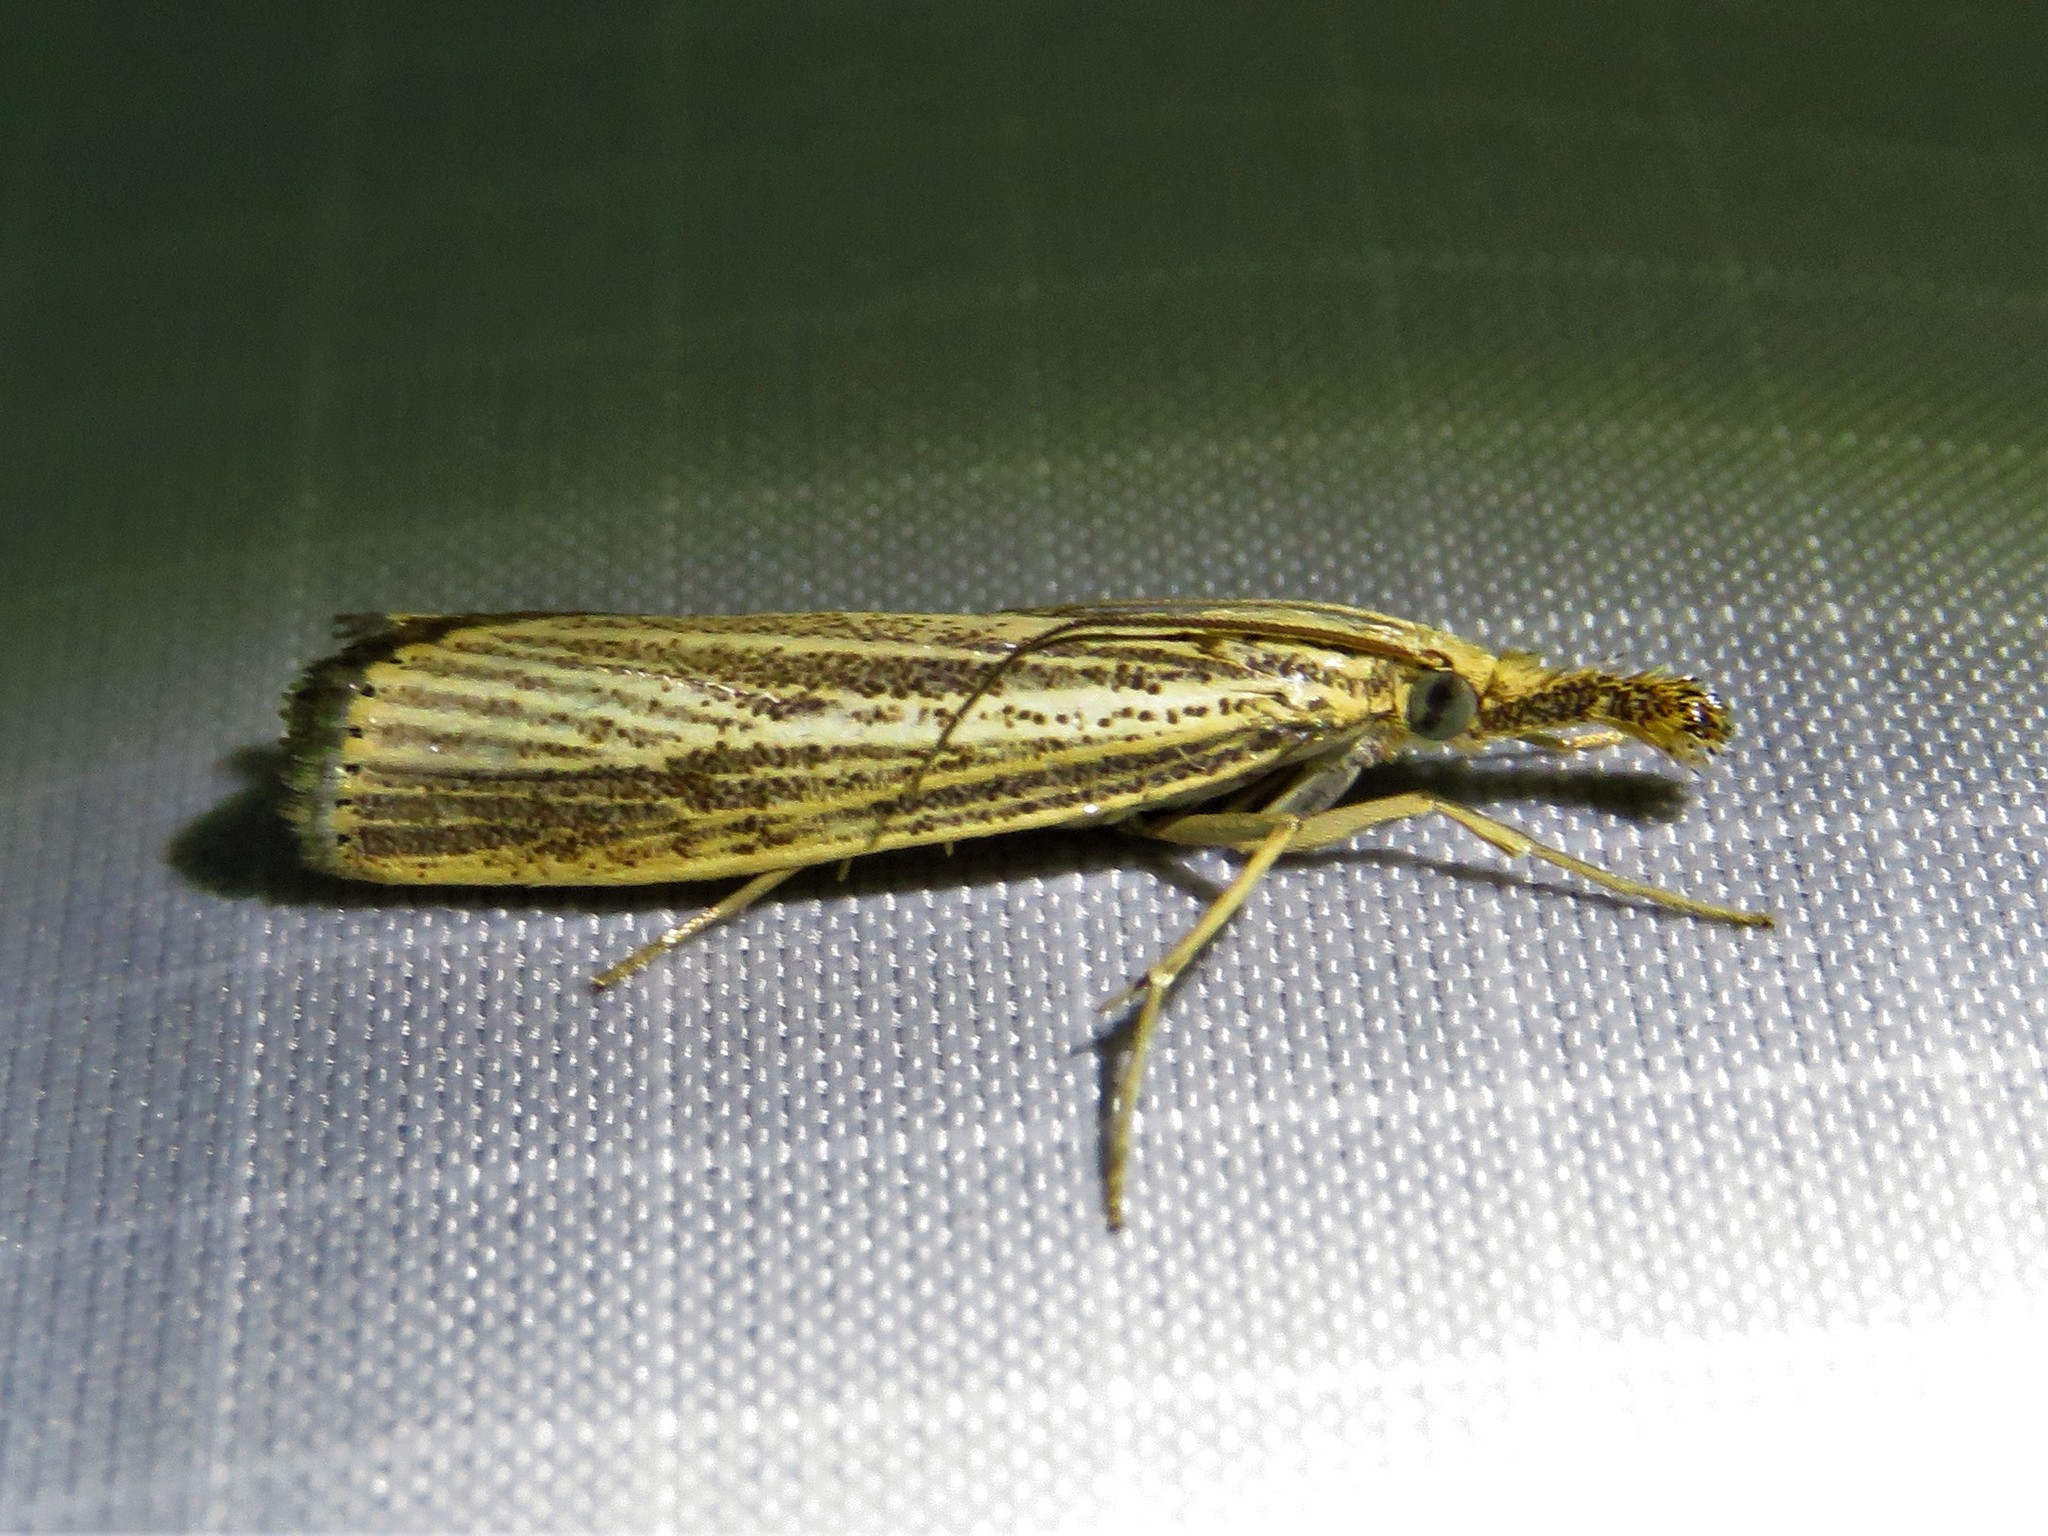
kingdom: Animalia
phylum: Arthropoda
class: Insecta
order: Lepidoptera
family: Crambidae
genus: Agriphila
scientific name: Agriphila vulgivagellus
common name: Vagabond crambus moth
